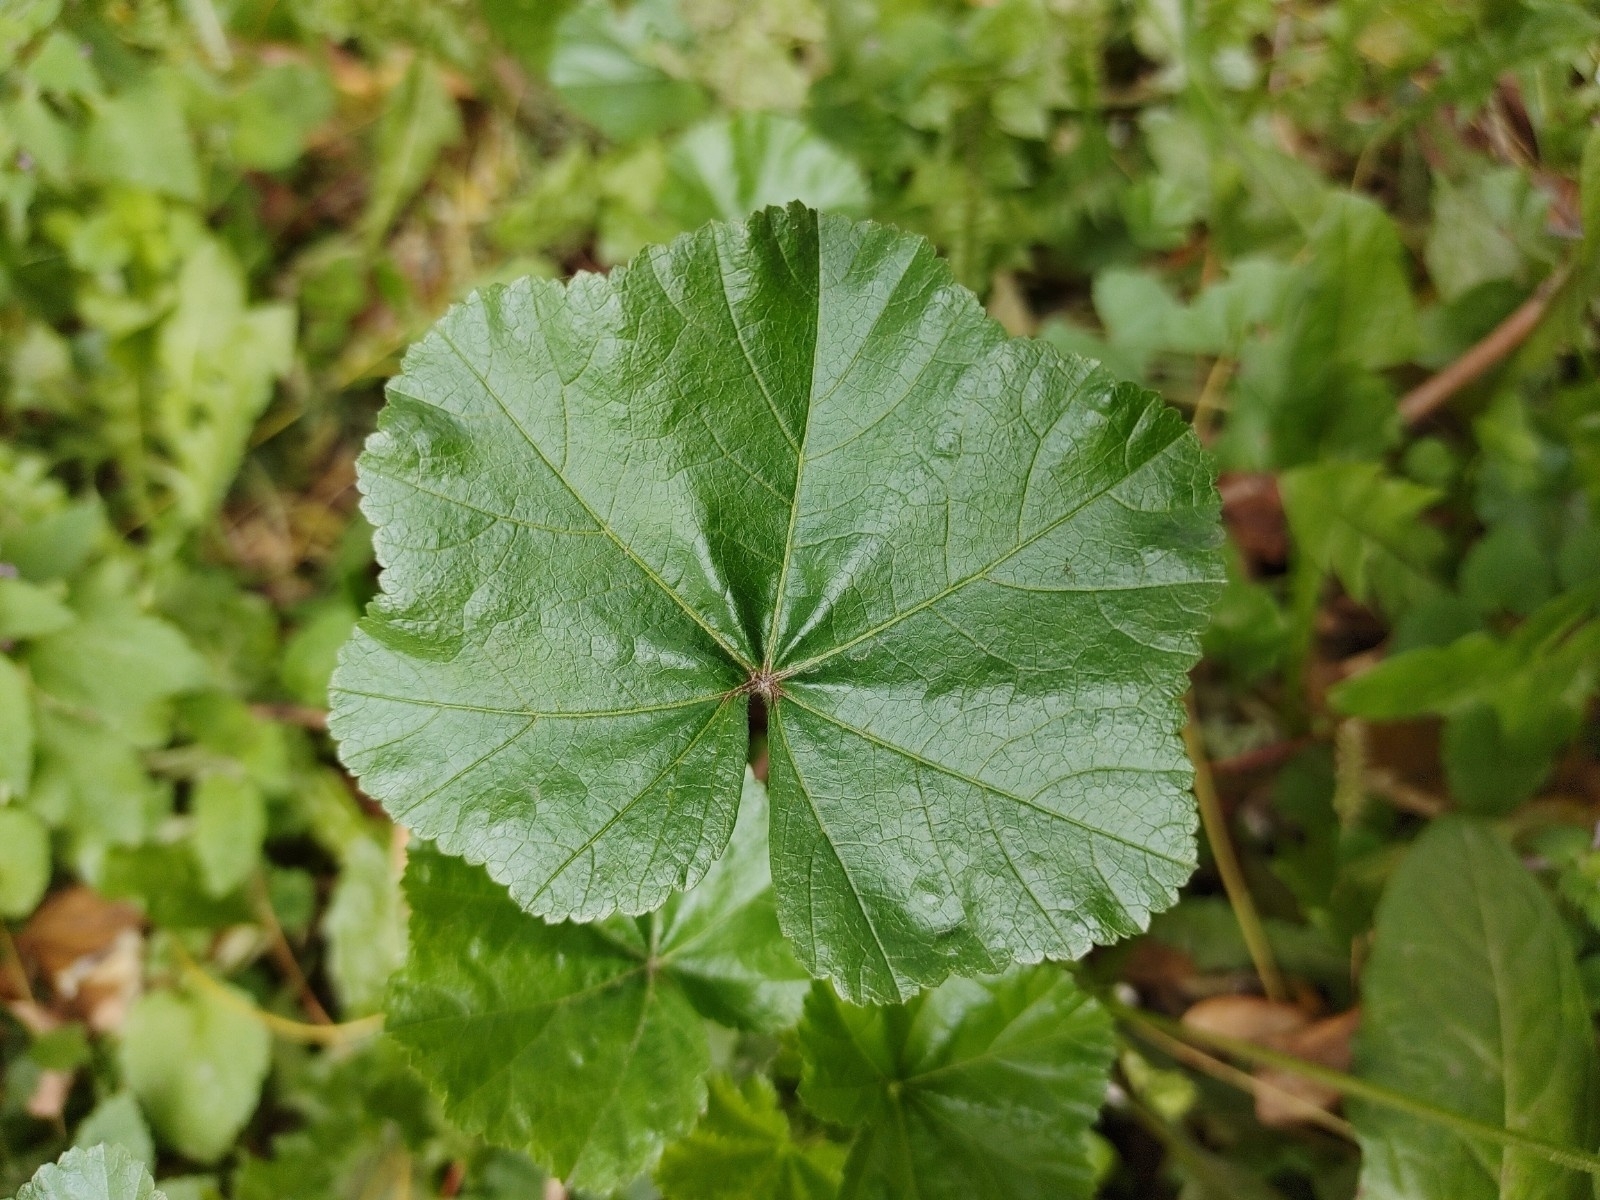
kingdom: Plantae
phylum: Tracheophyta
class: Magnoliopsida
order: Malvales
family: Malvaceae
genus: Malva
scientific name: Malva neglecta
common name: Common mallow
